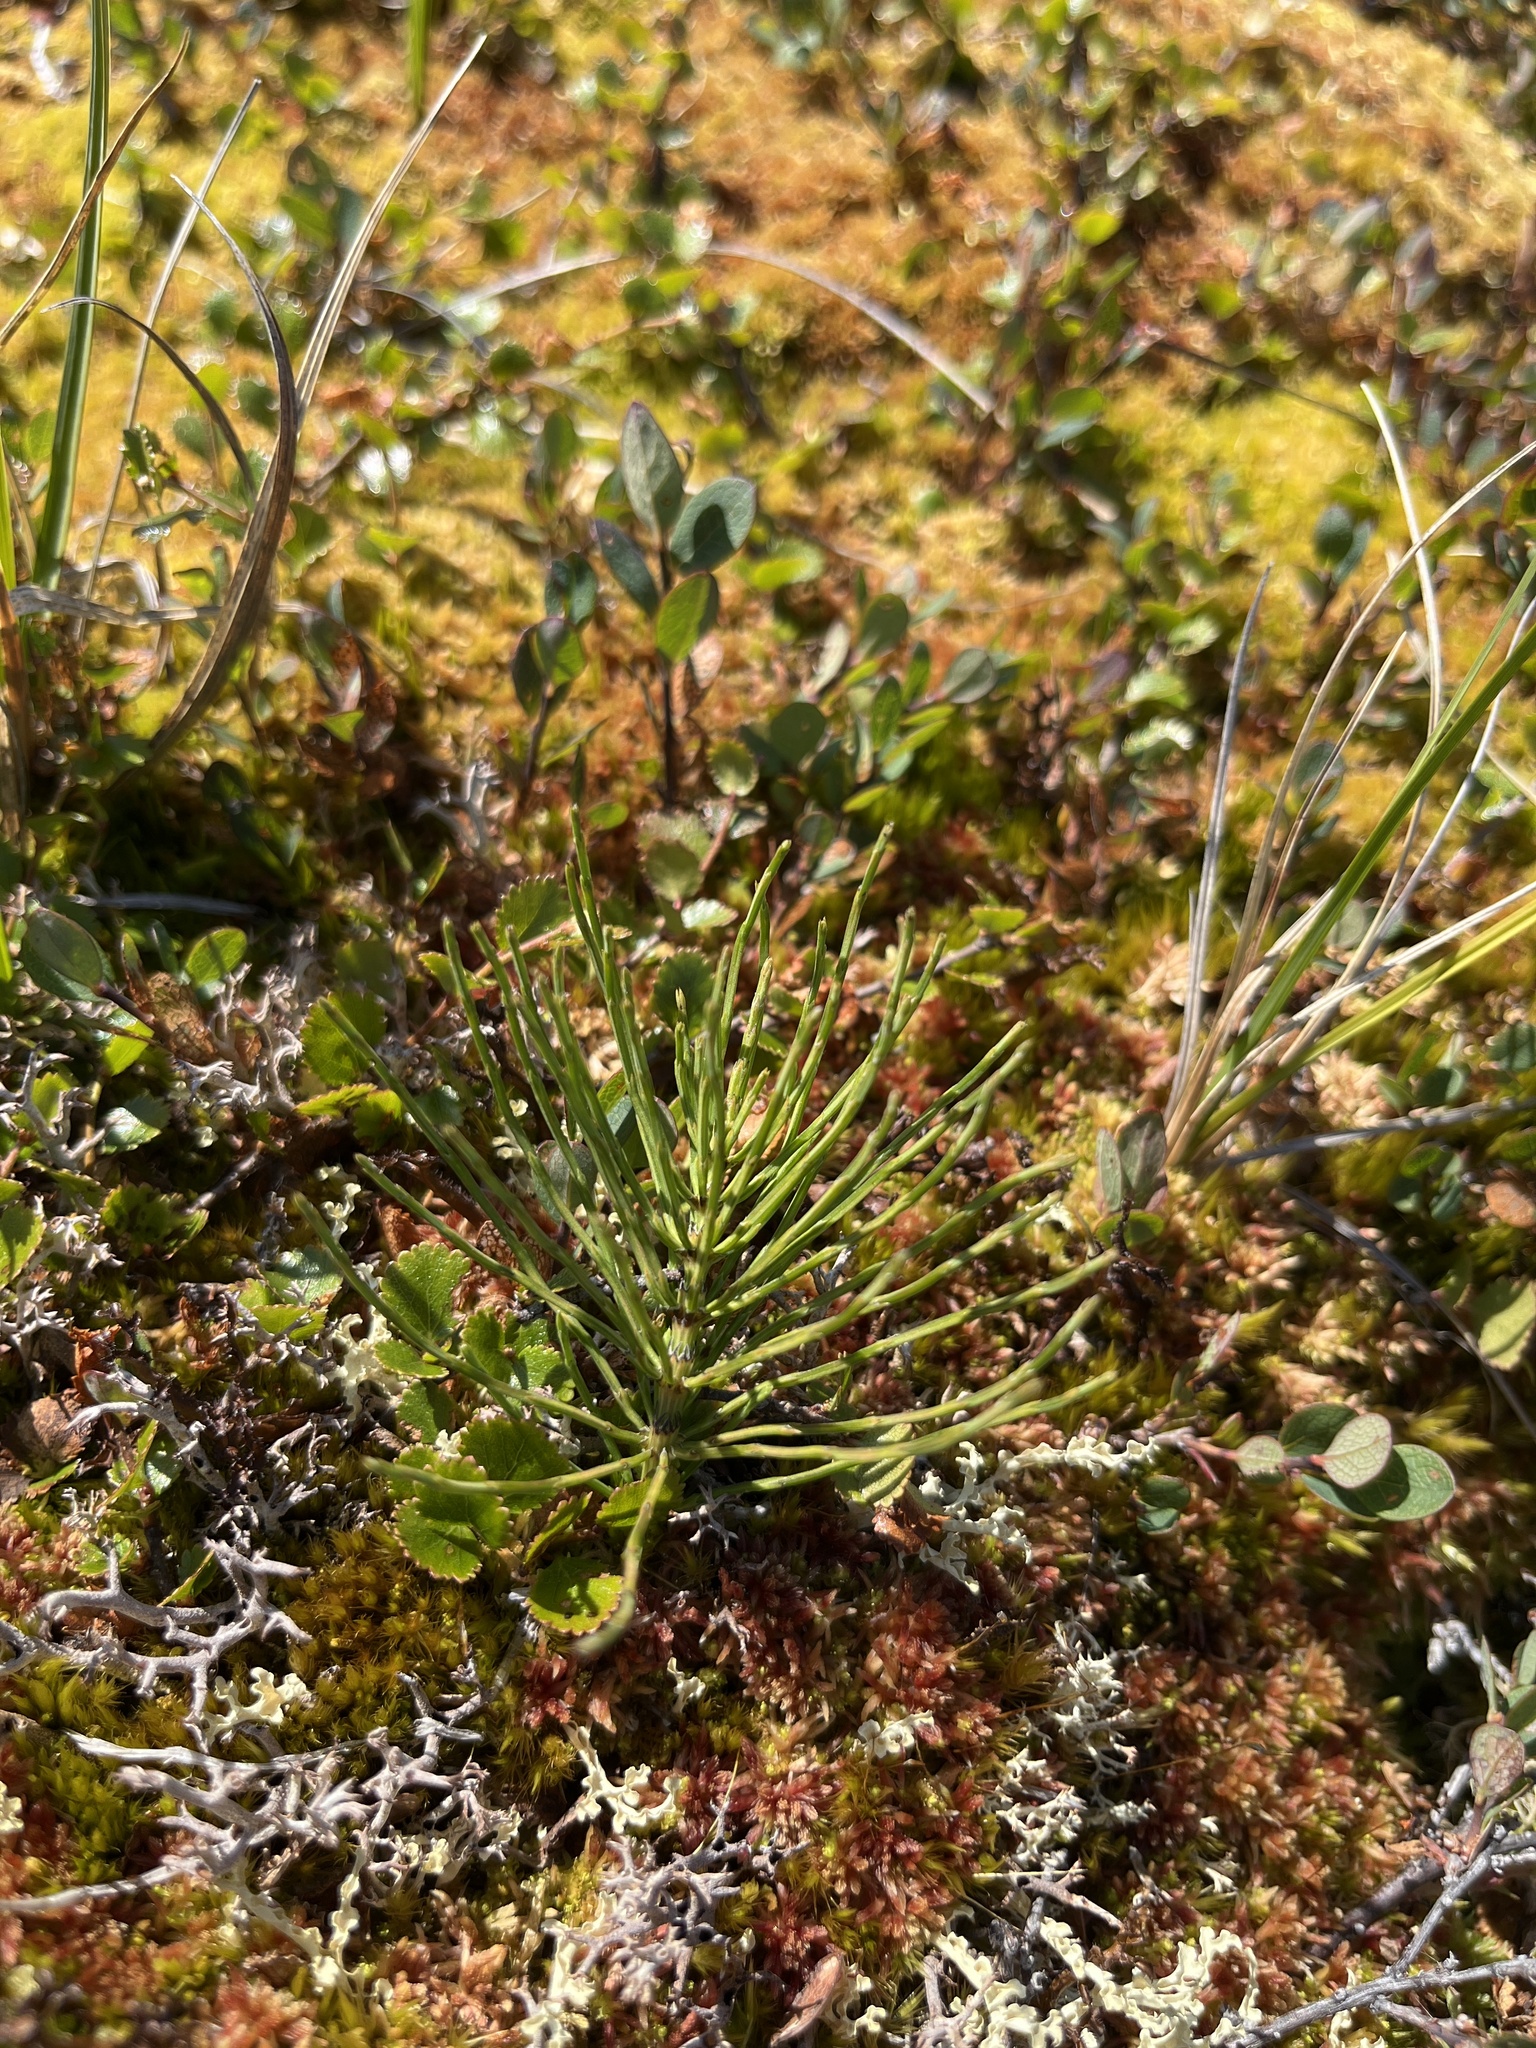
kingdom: Plantae
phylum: Tracheophyta
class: Polypodiopsida
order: Equisetales
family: Equisetaceae
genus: Equisetum
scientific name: Equisetum arvense
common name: Field horsetail
